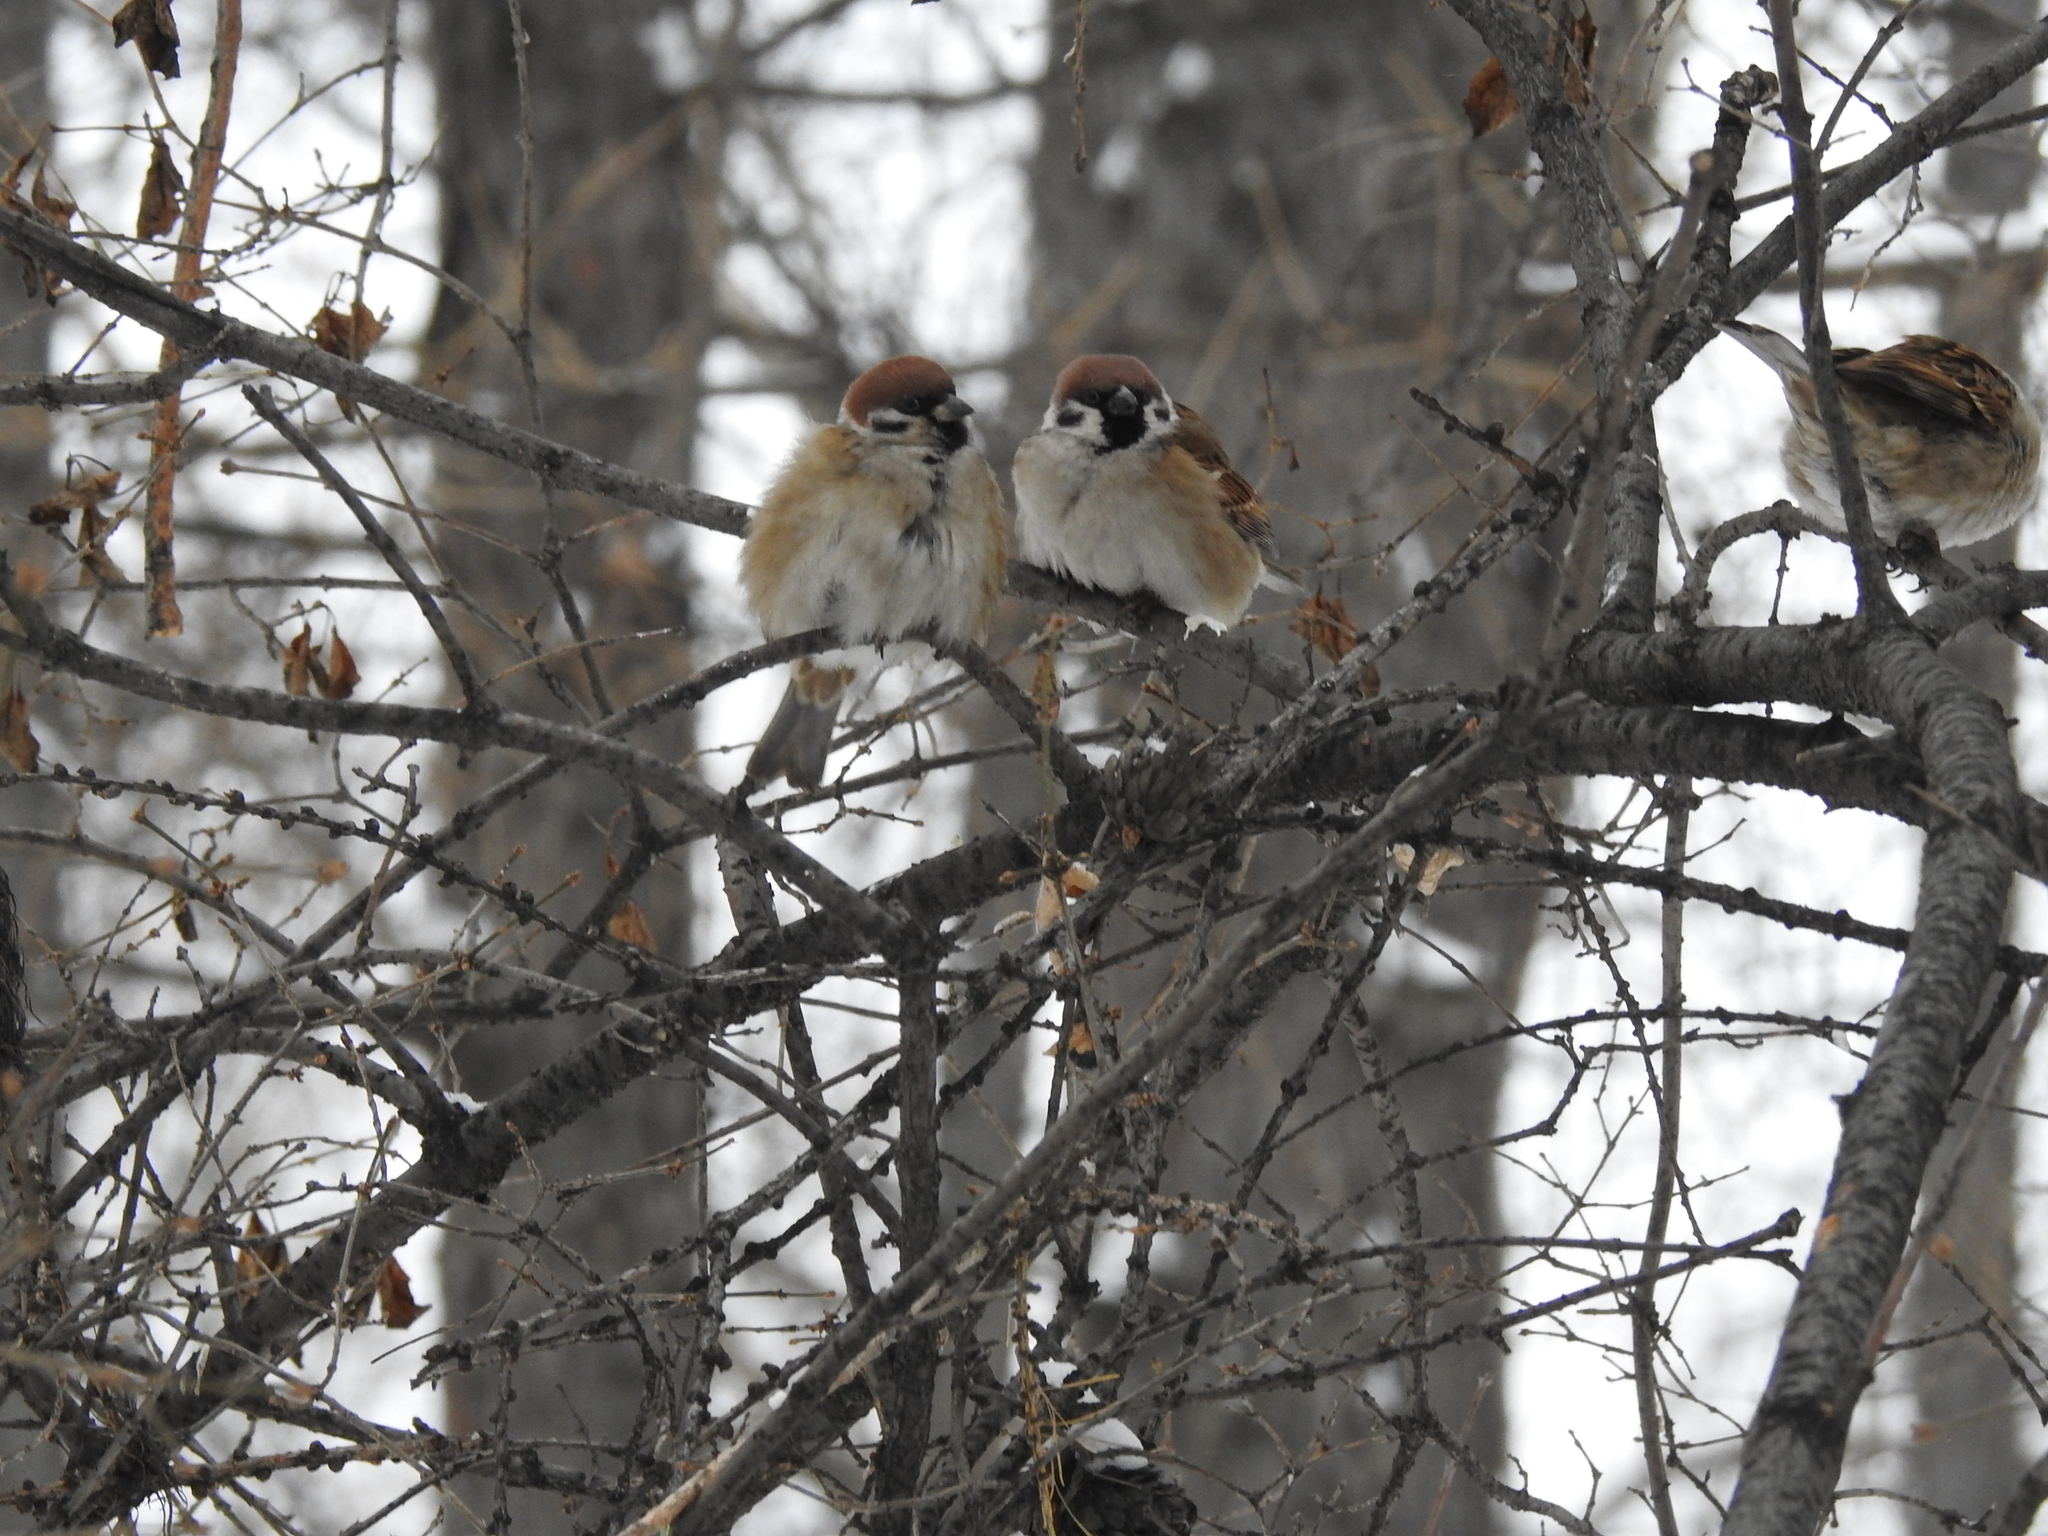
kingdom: Animalia
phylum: Chordata
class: Aves
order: Passeriformes
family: Passeridae
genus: Passer
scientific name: Passer montanus
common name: Eurasian tree sparrow
